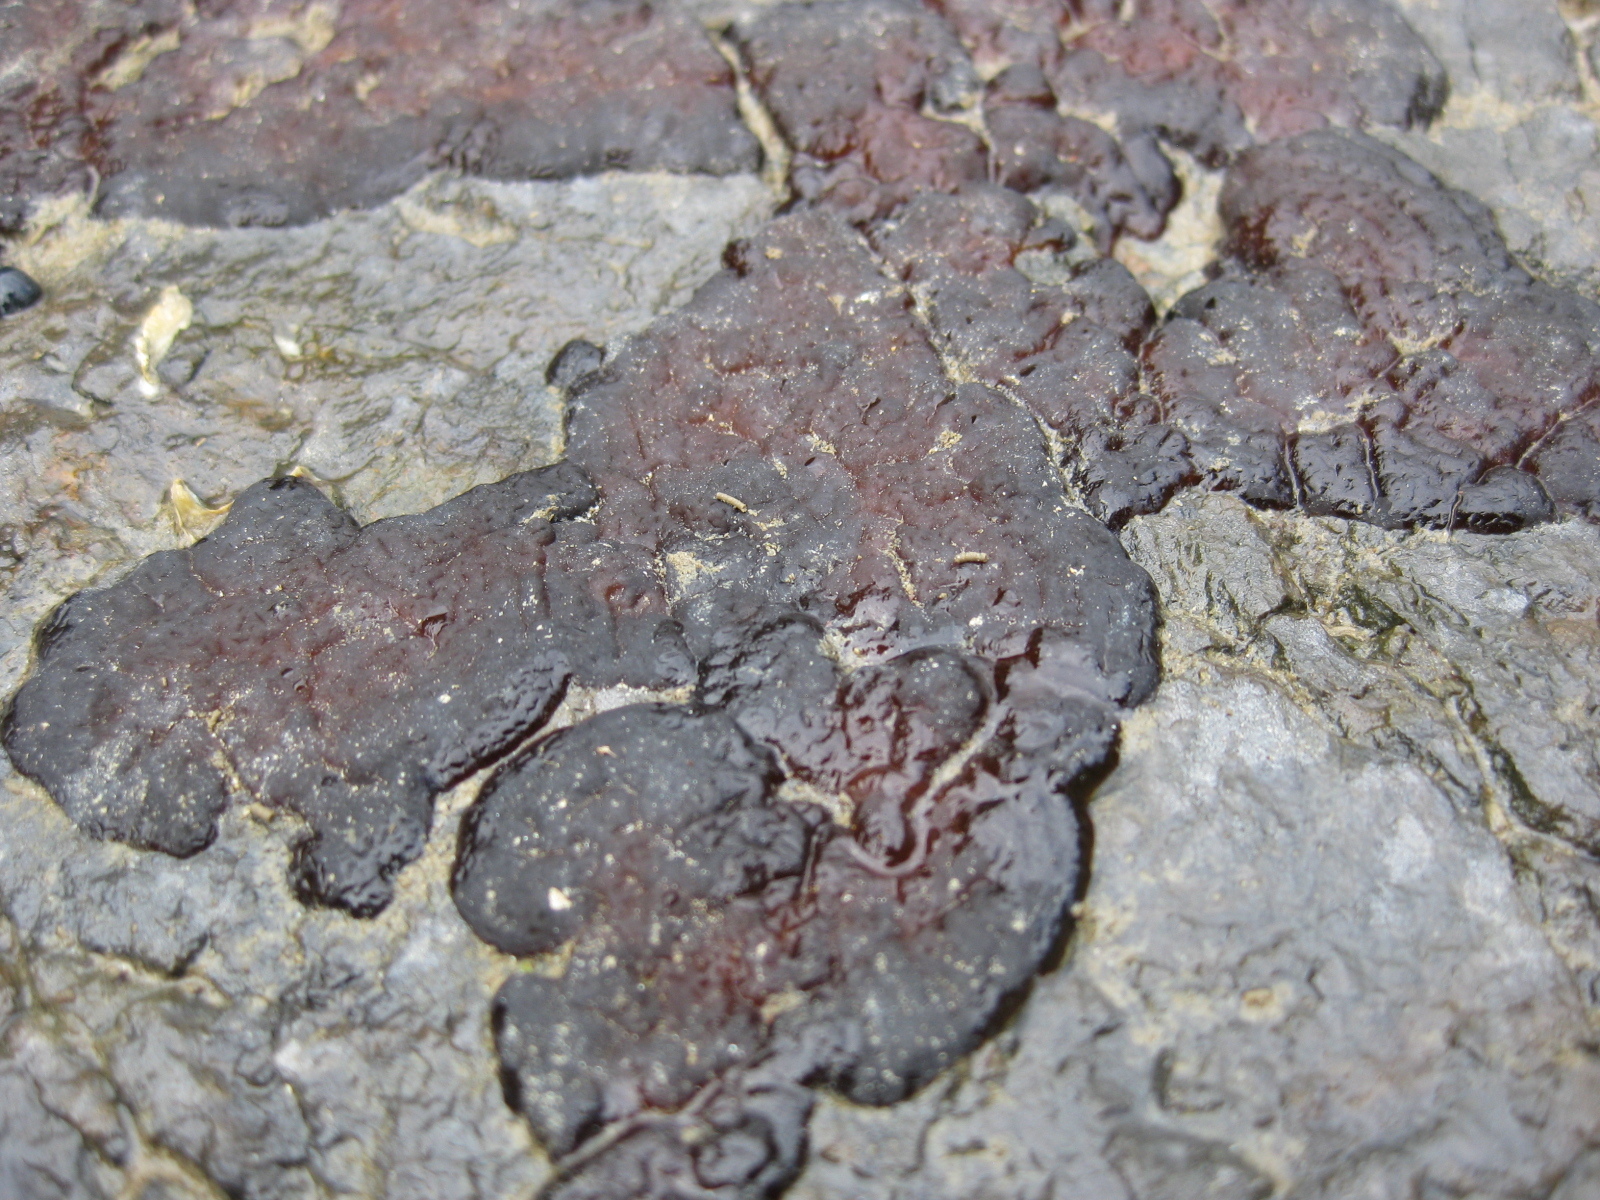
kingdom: Plantae
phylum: Rhodophyta
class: Florideophyceae
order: Hildenbrandiales
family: Hildenbrandiaceae
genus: Apophlaea
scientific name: Apophlaea
